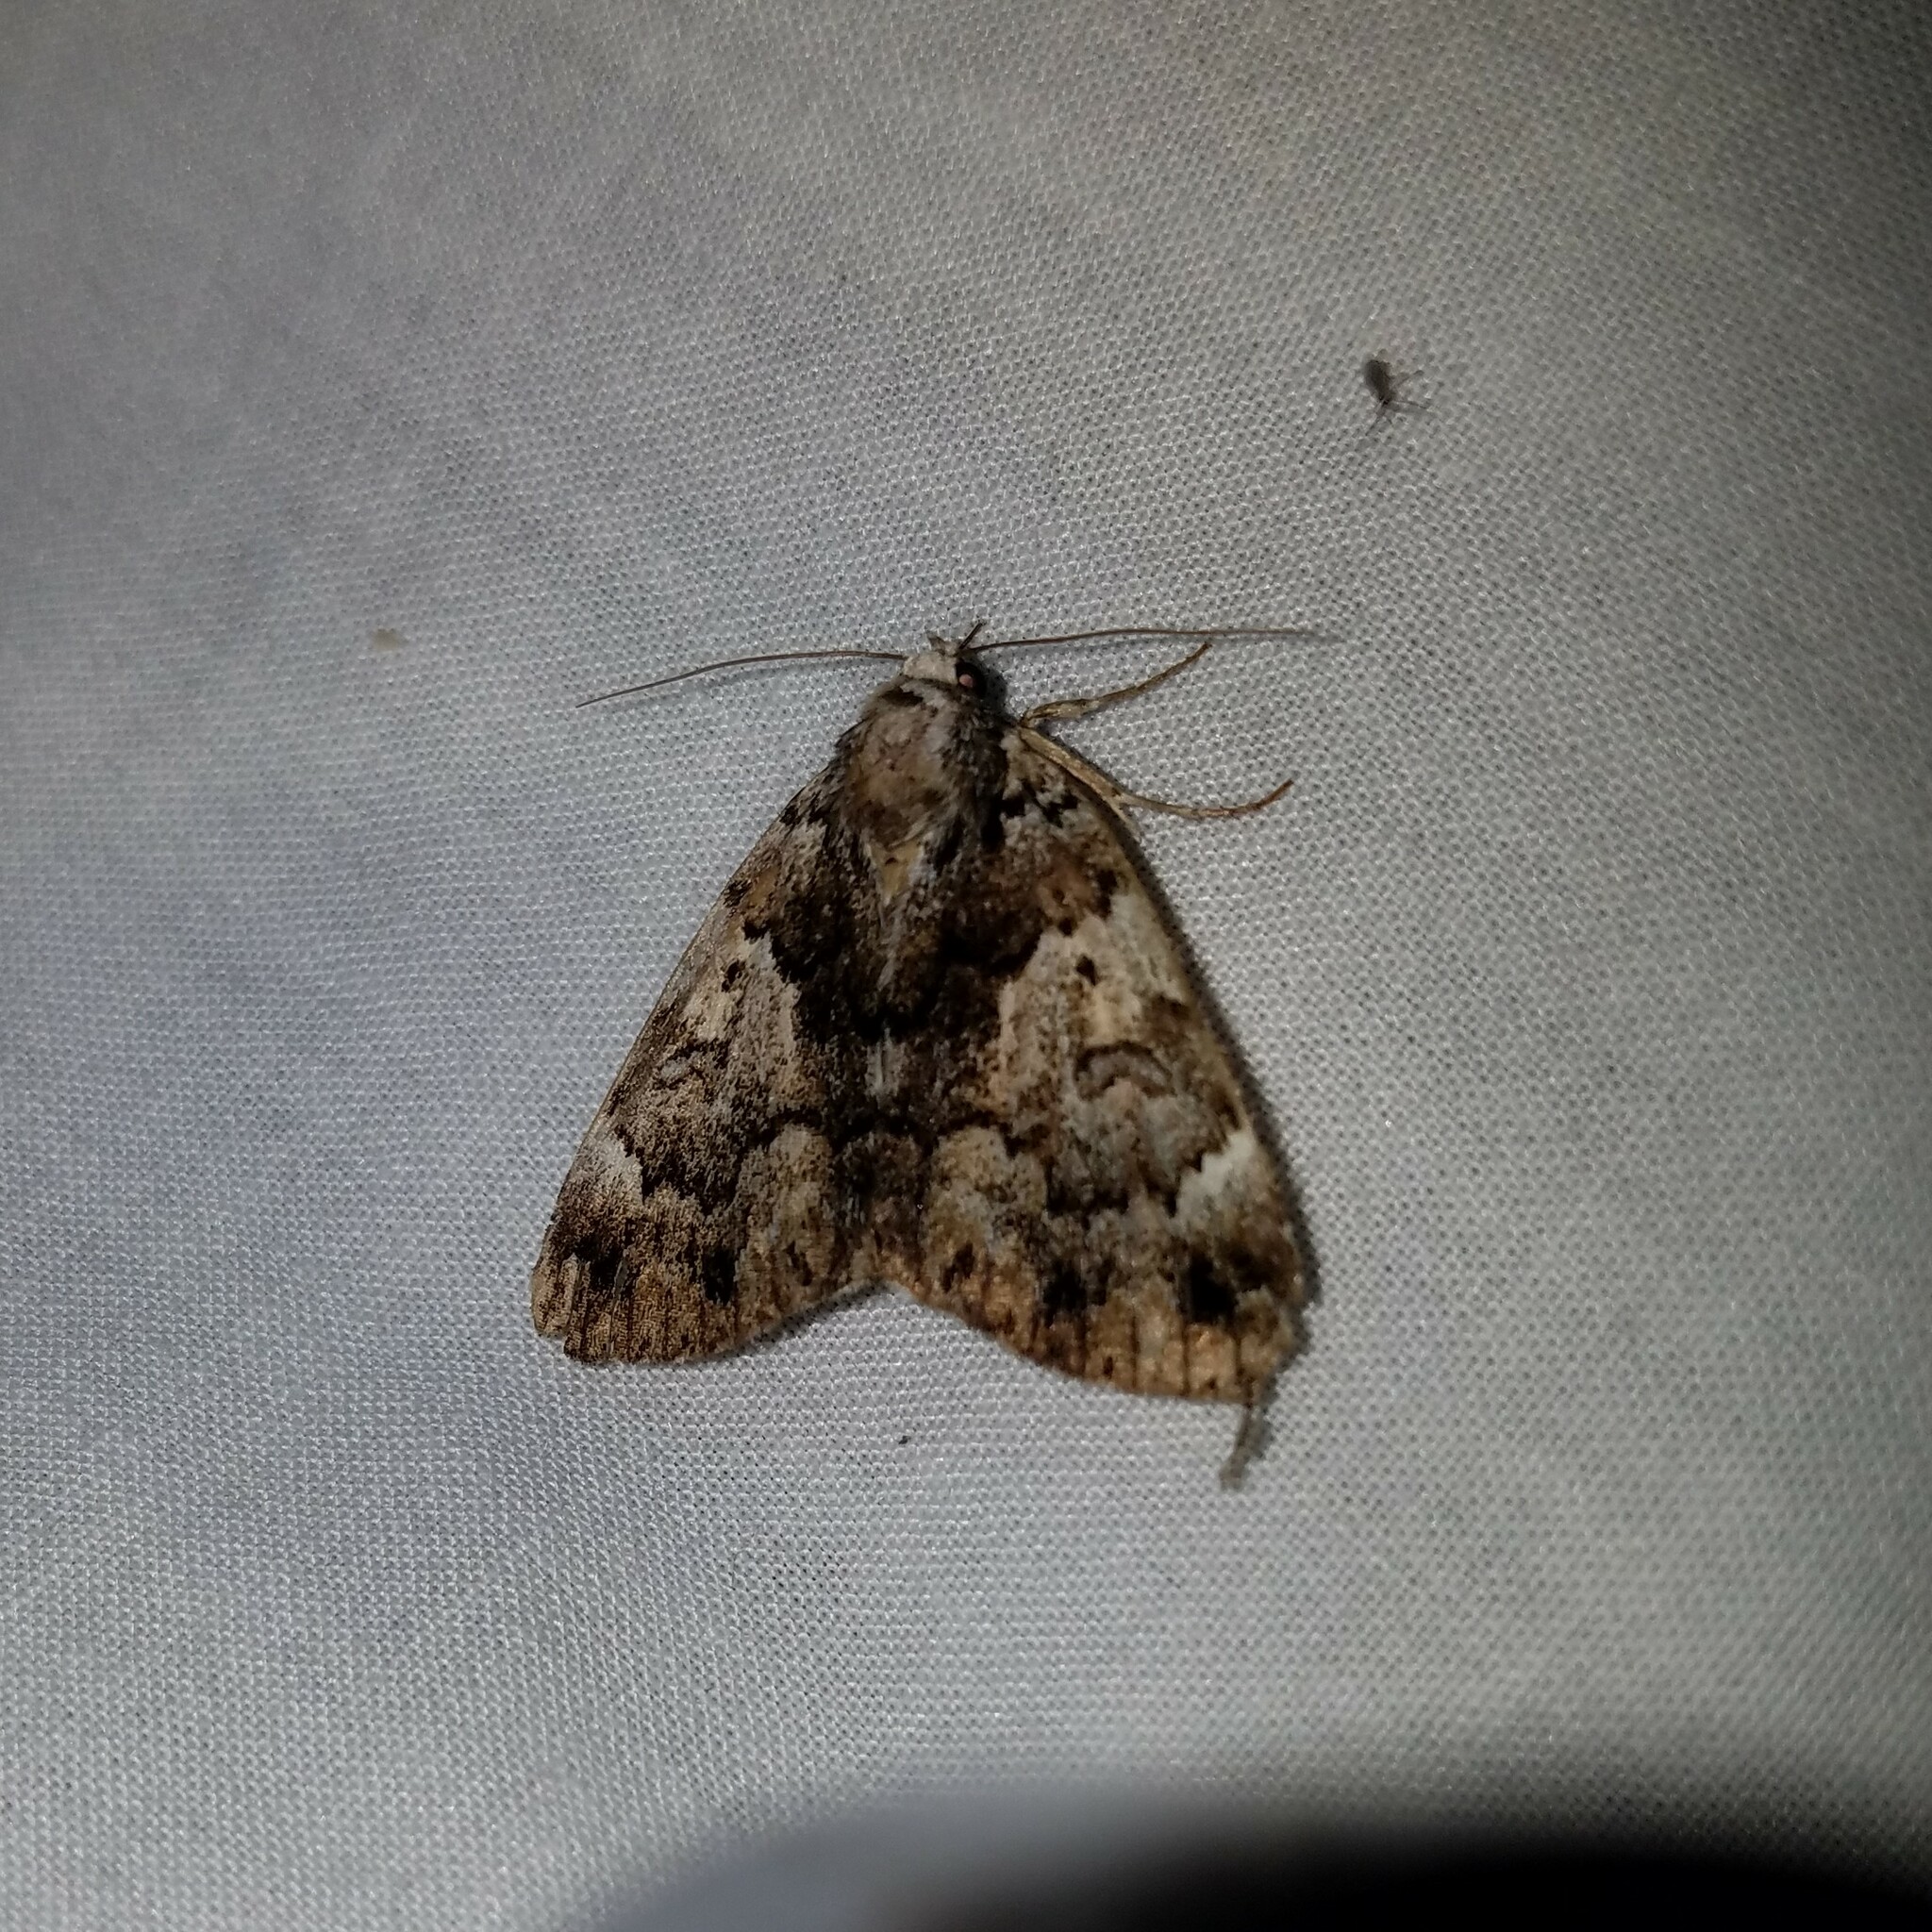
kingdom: Animalia
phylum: Arthropoda
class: Insecta
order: Lepidoptera
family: Erebidae
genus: Allotria
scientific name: Allotria elonympha
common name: False underwing
